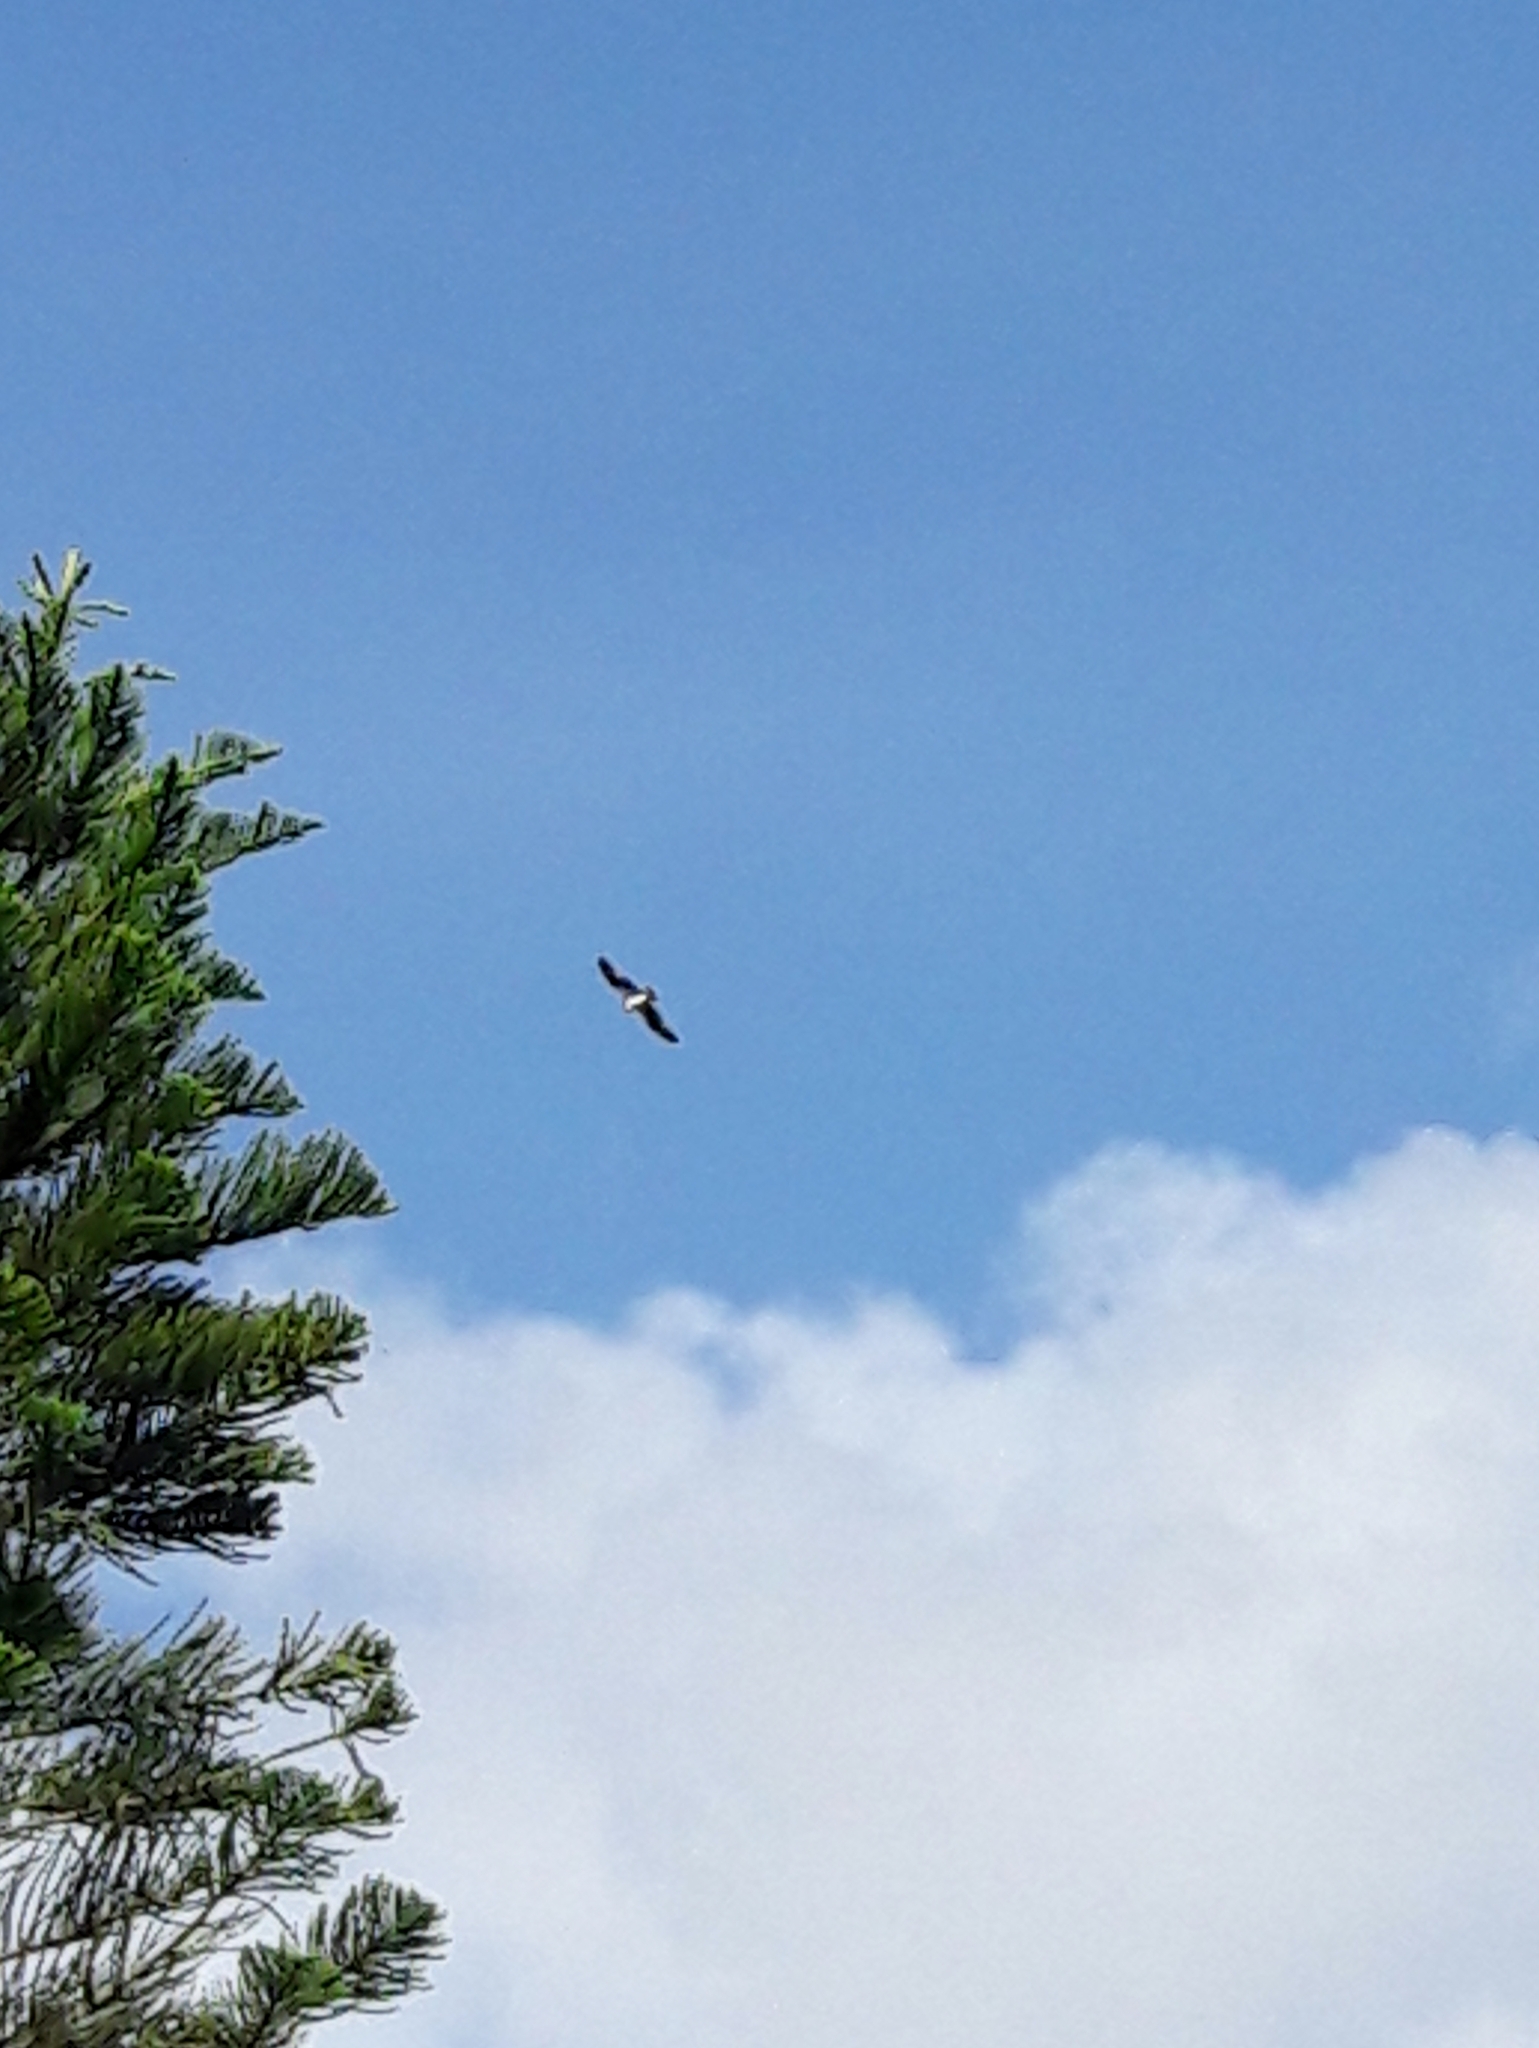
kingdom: Animalia
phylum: Chordata
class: Aves
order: Accipitriformes
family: Pandionidae
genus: Pandion
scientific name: Pandion haliaetus
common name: Osprey
